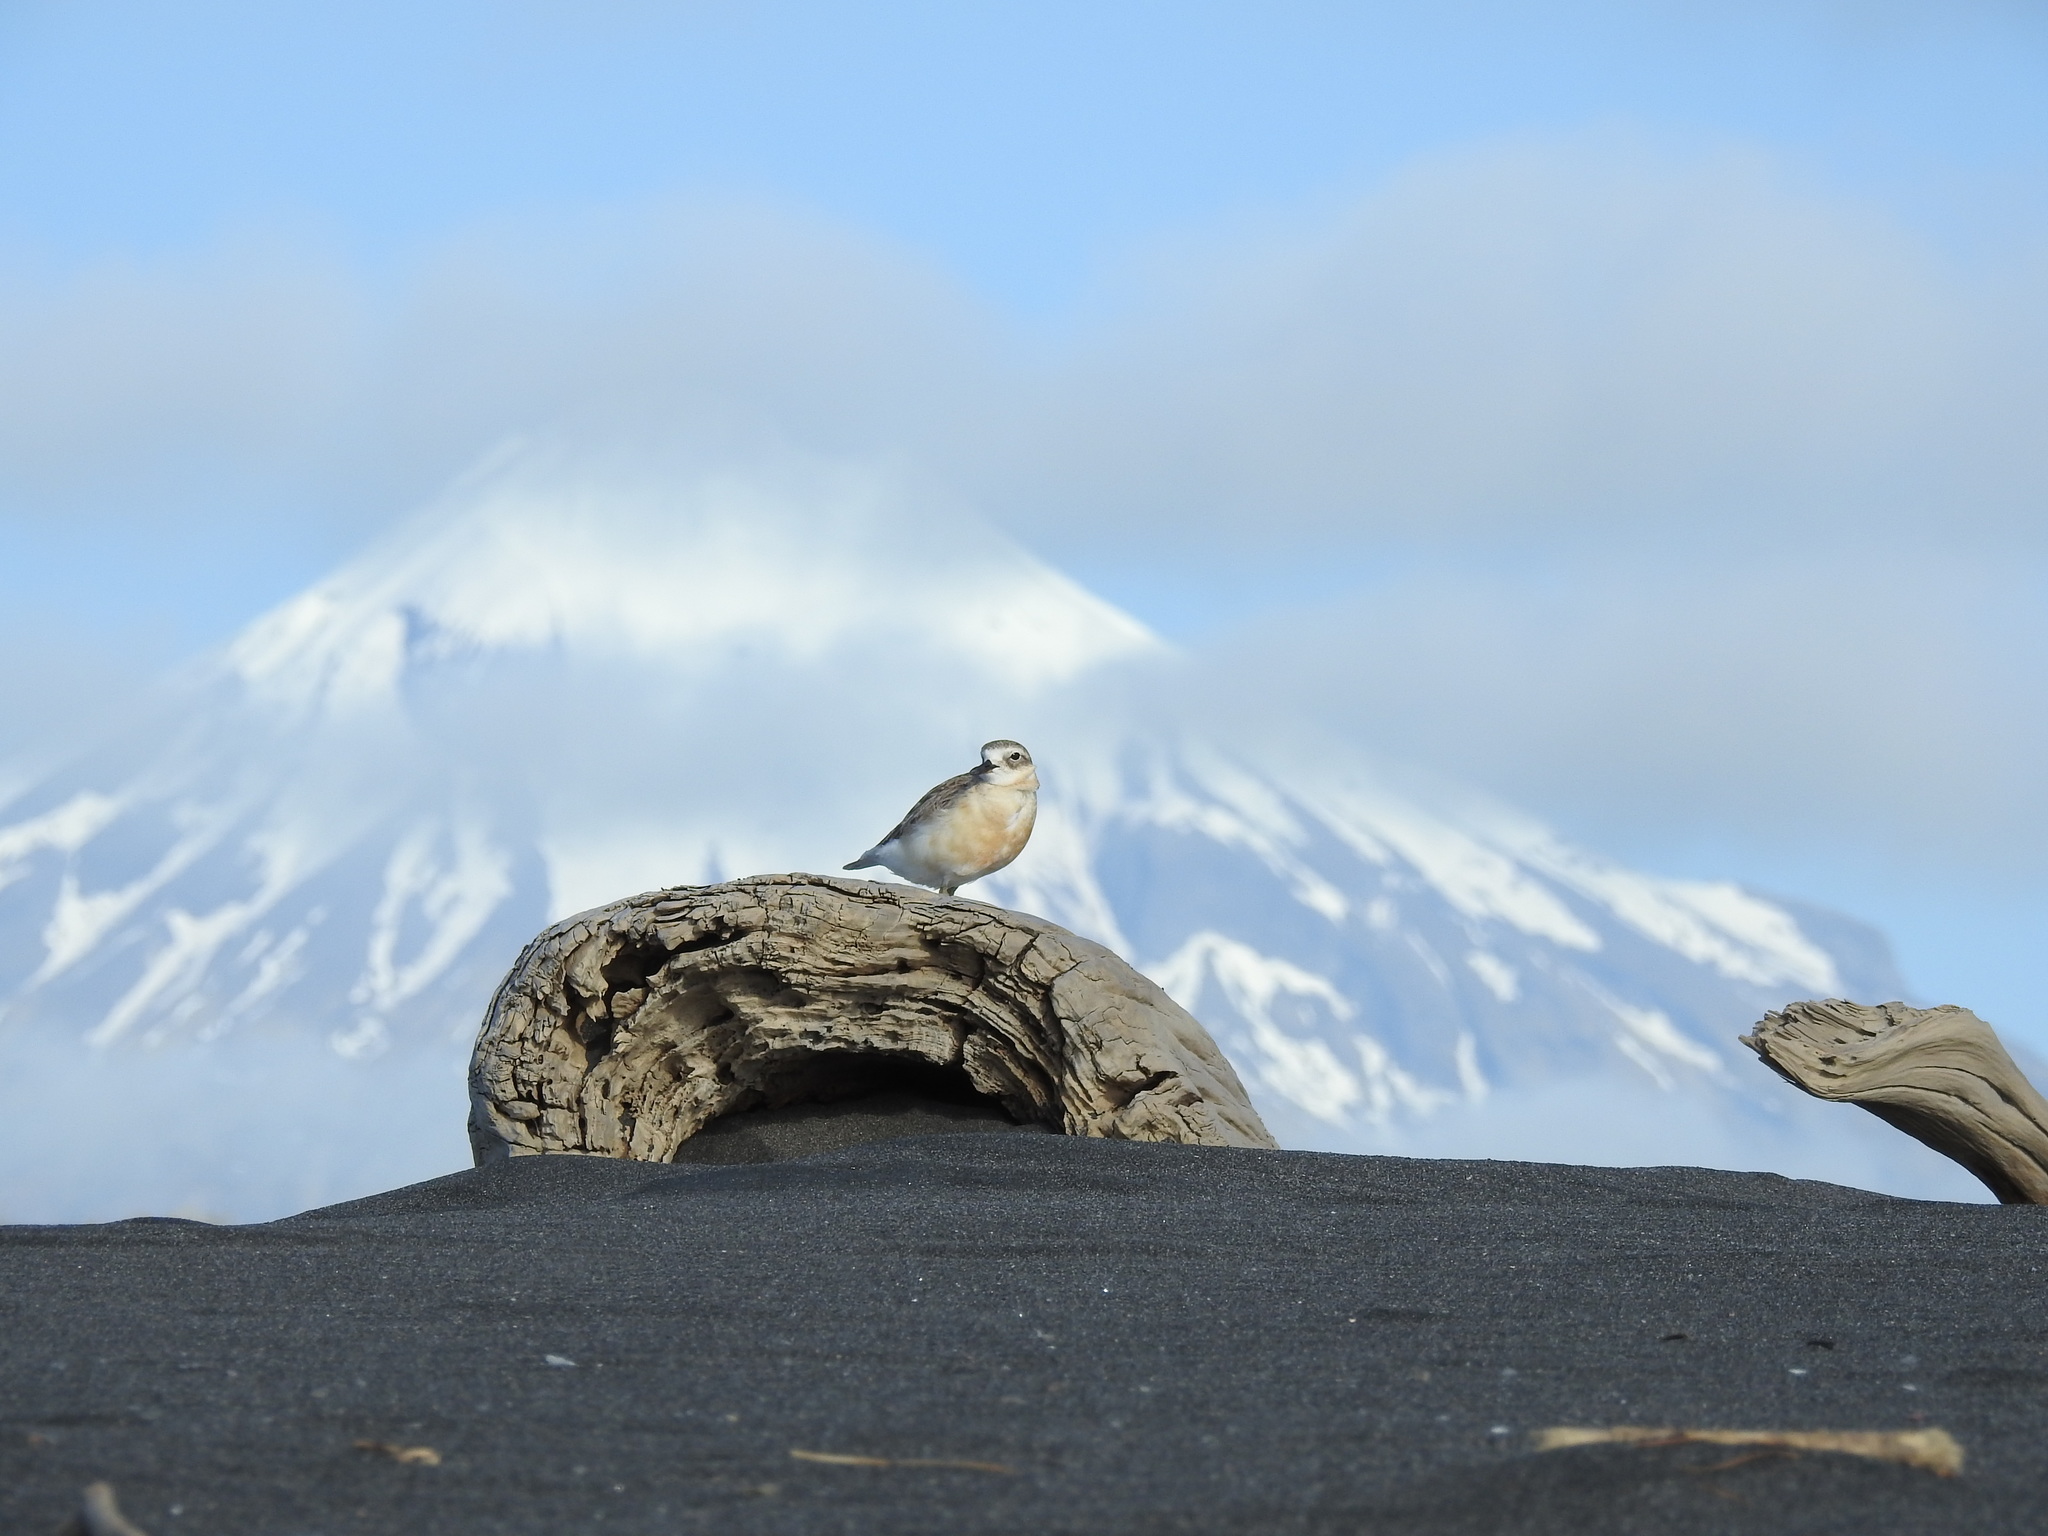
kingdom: Animalia
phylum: Chordata
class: Aves
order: Charadriiformes
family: Charadriidae
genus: Anarhynchus
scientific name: Anarhynchus
